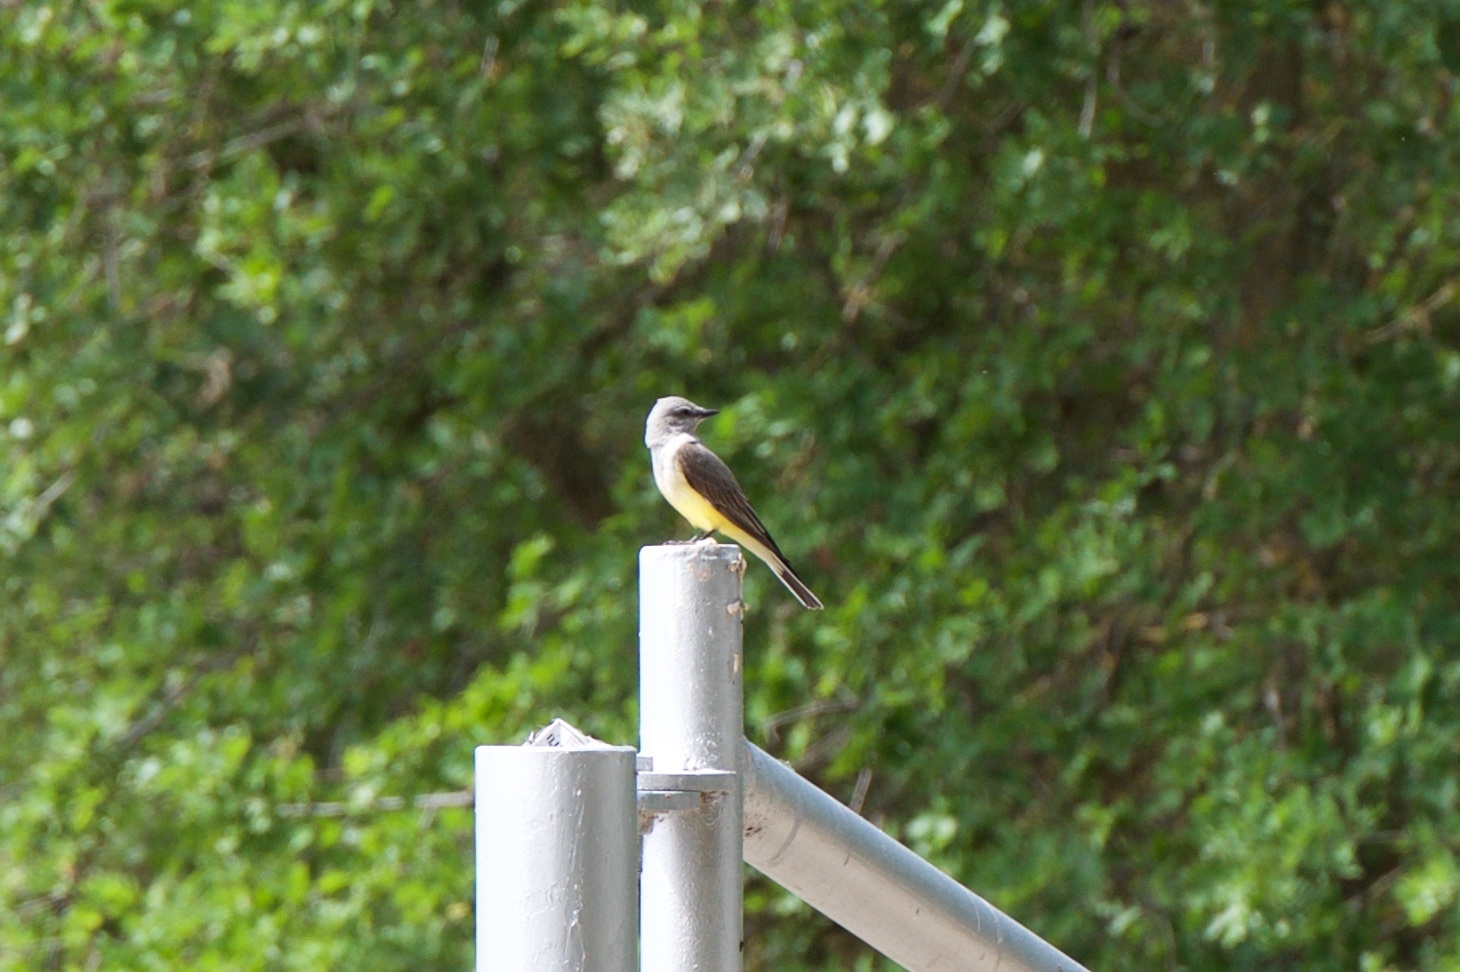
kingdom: Animalia
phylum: Chordata
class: Aves
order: Passeriformes
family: Tyrannidae
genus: Tyrannus
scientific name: Tyrannus verticalis
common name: Western kingbird
